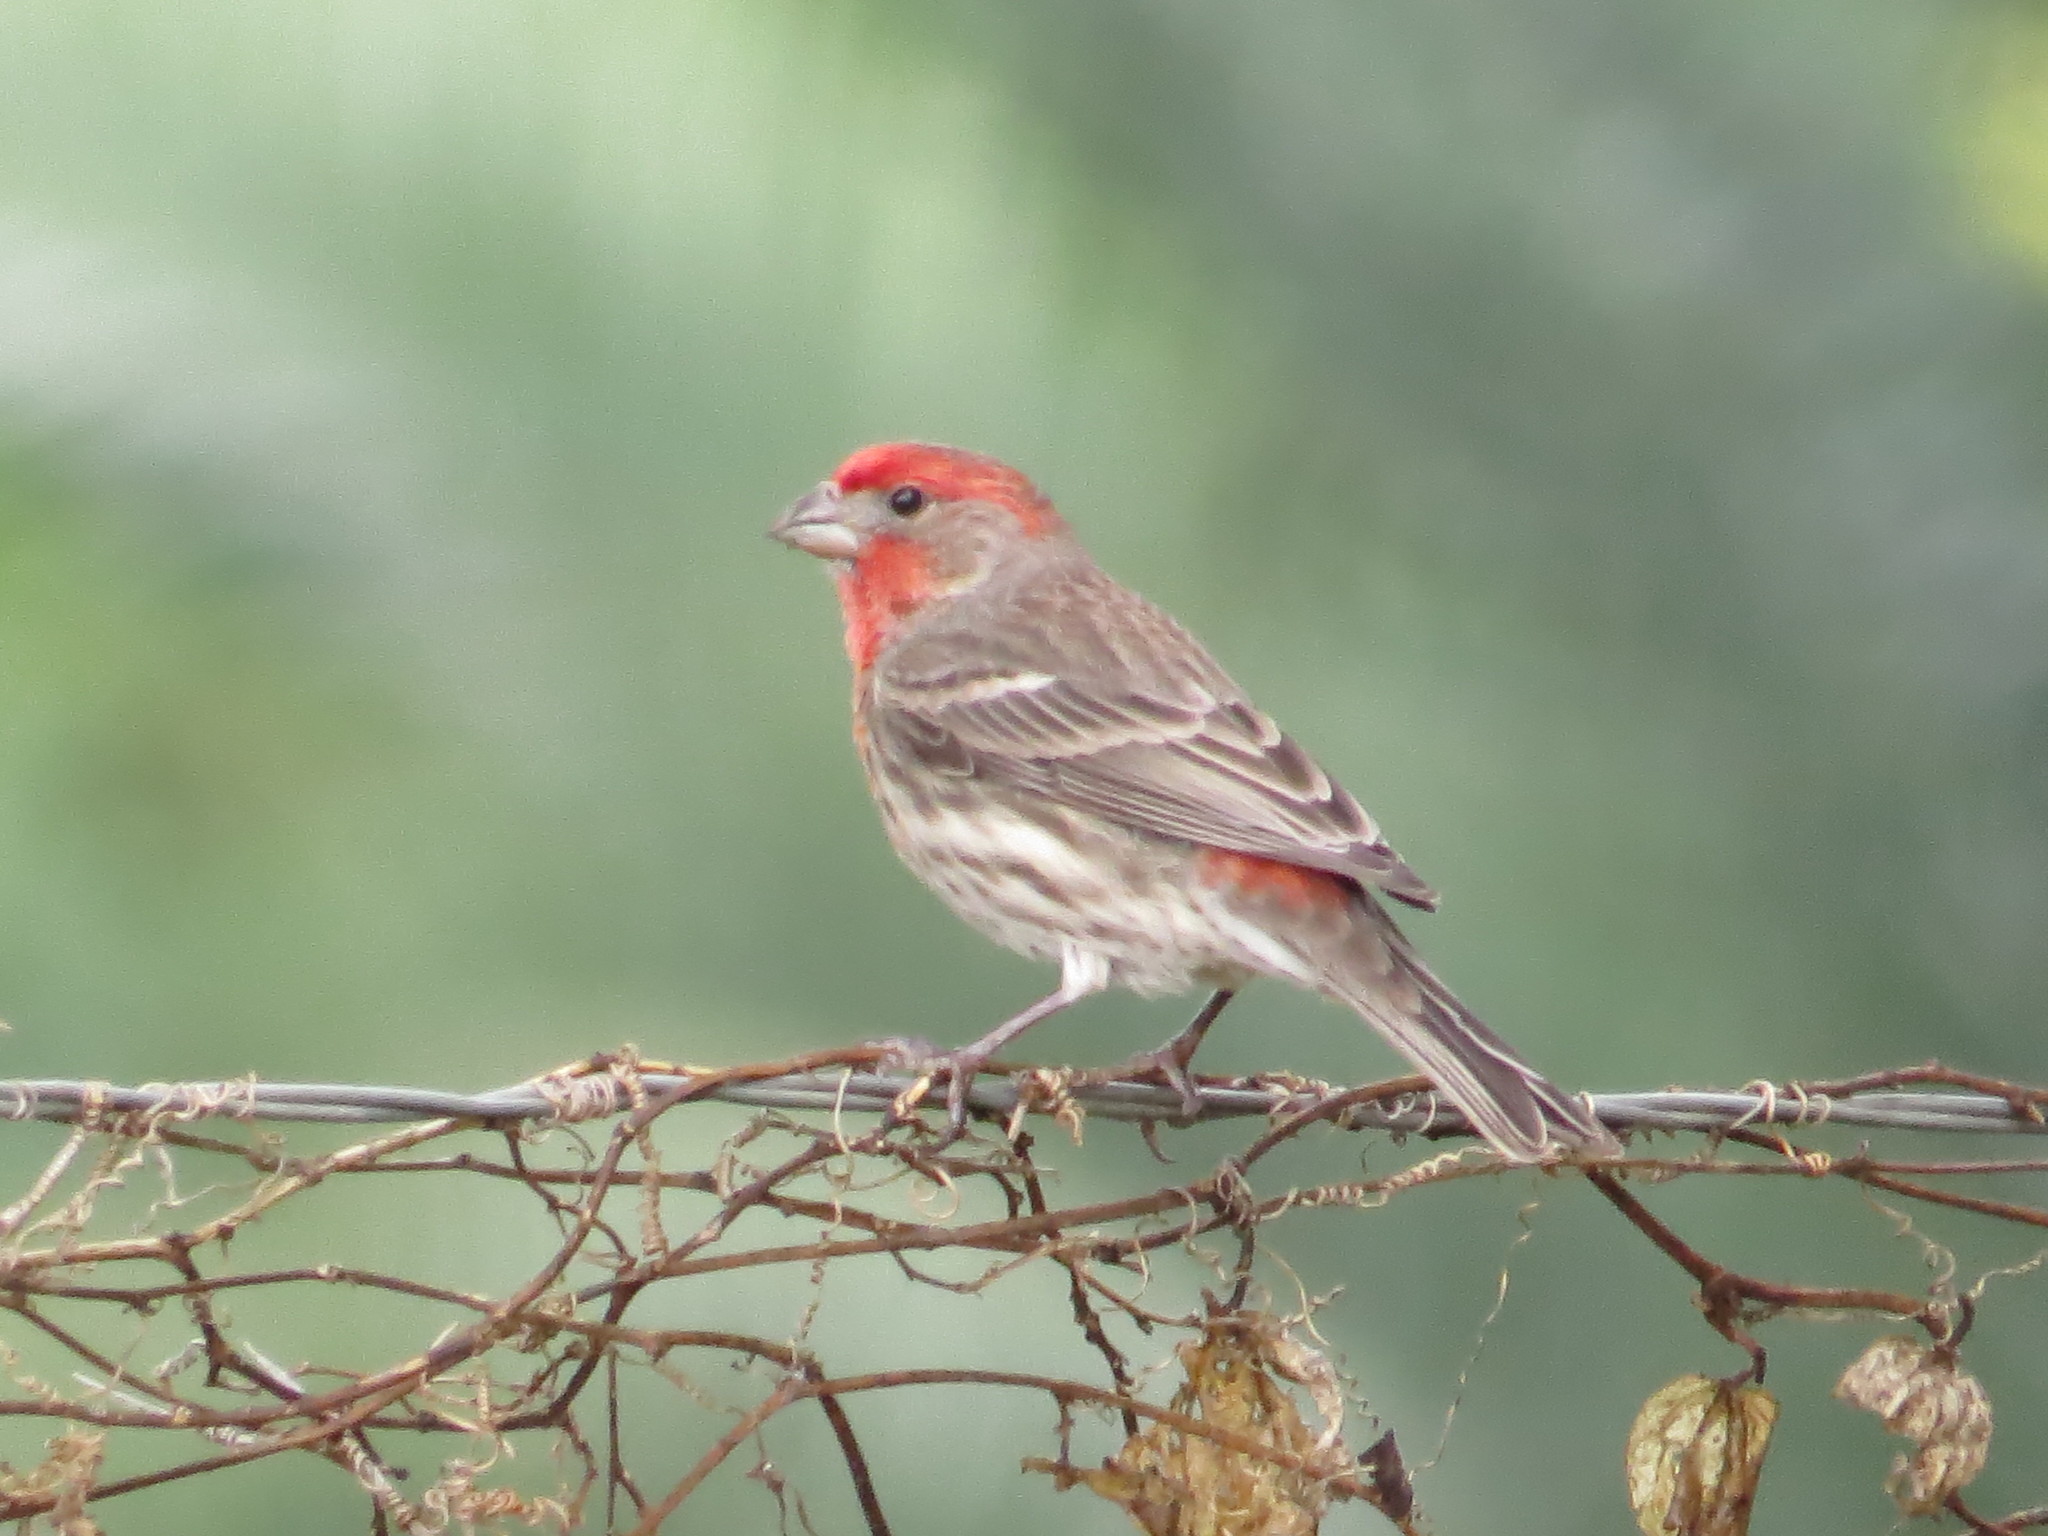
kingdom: Animalia
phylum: Chordata
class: Aves
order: Passeriformes
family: Fringillidae
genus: Haemorhous
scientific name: Haemorhous mexicanus
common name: House finch
